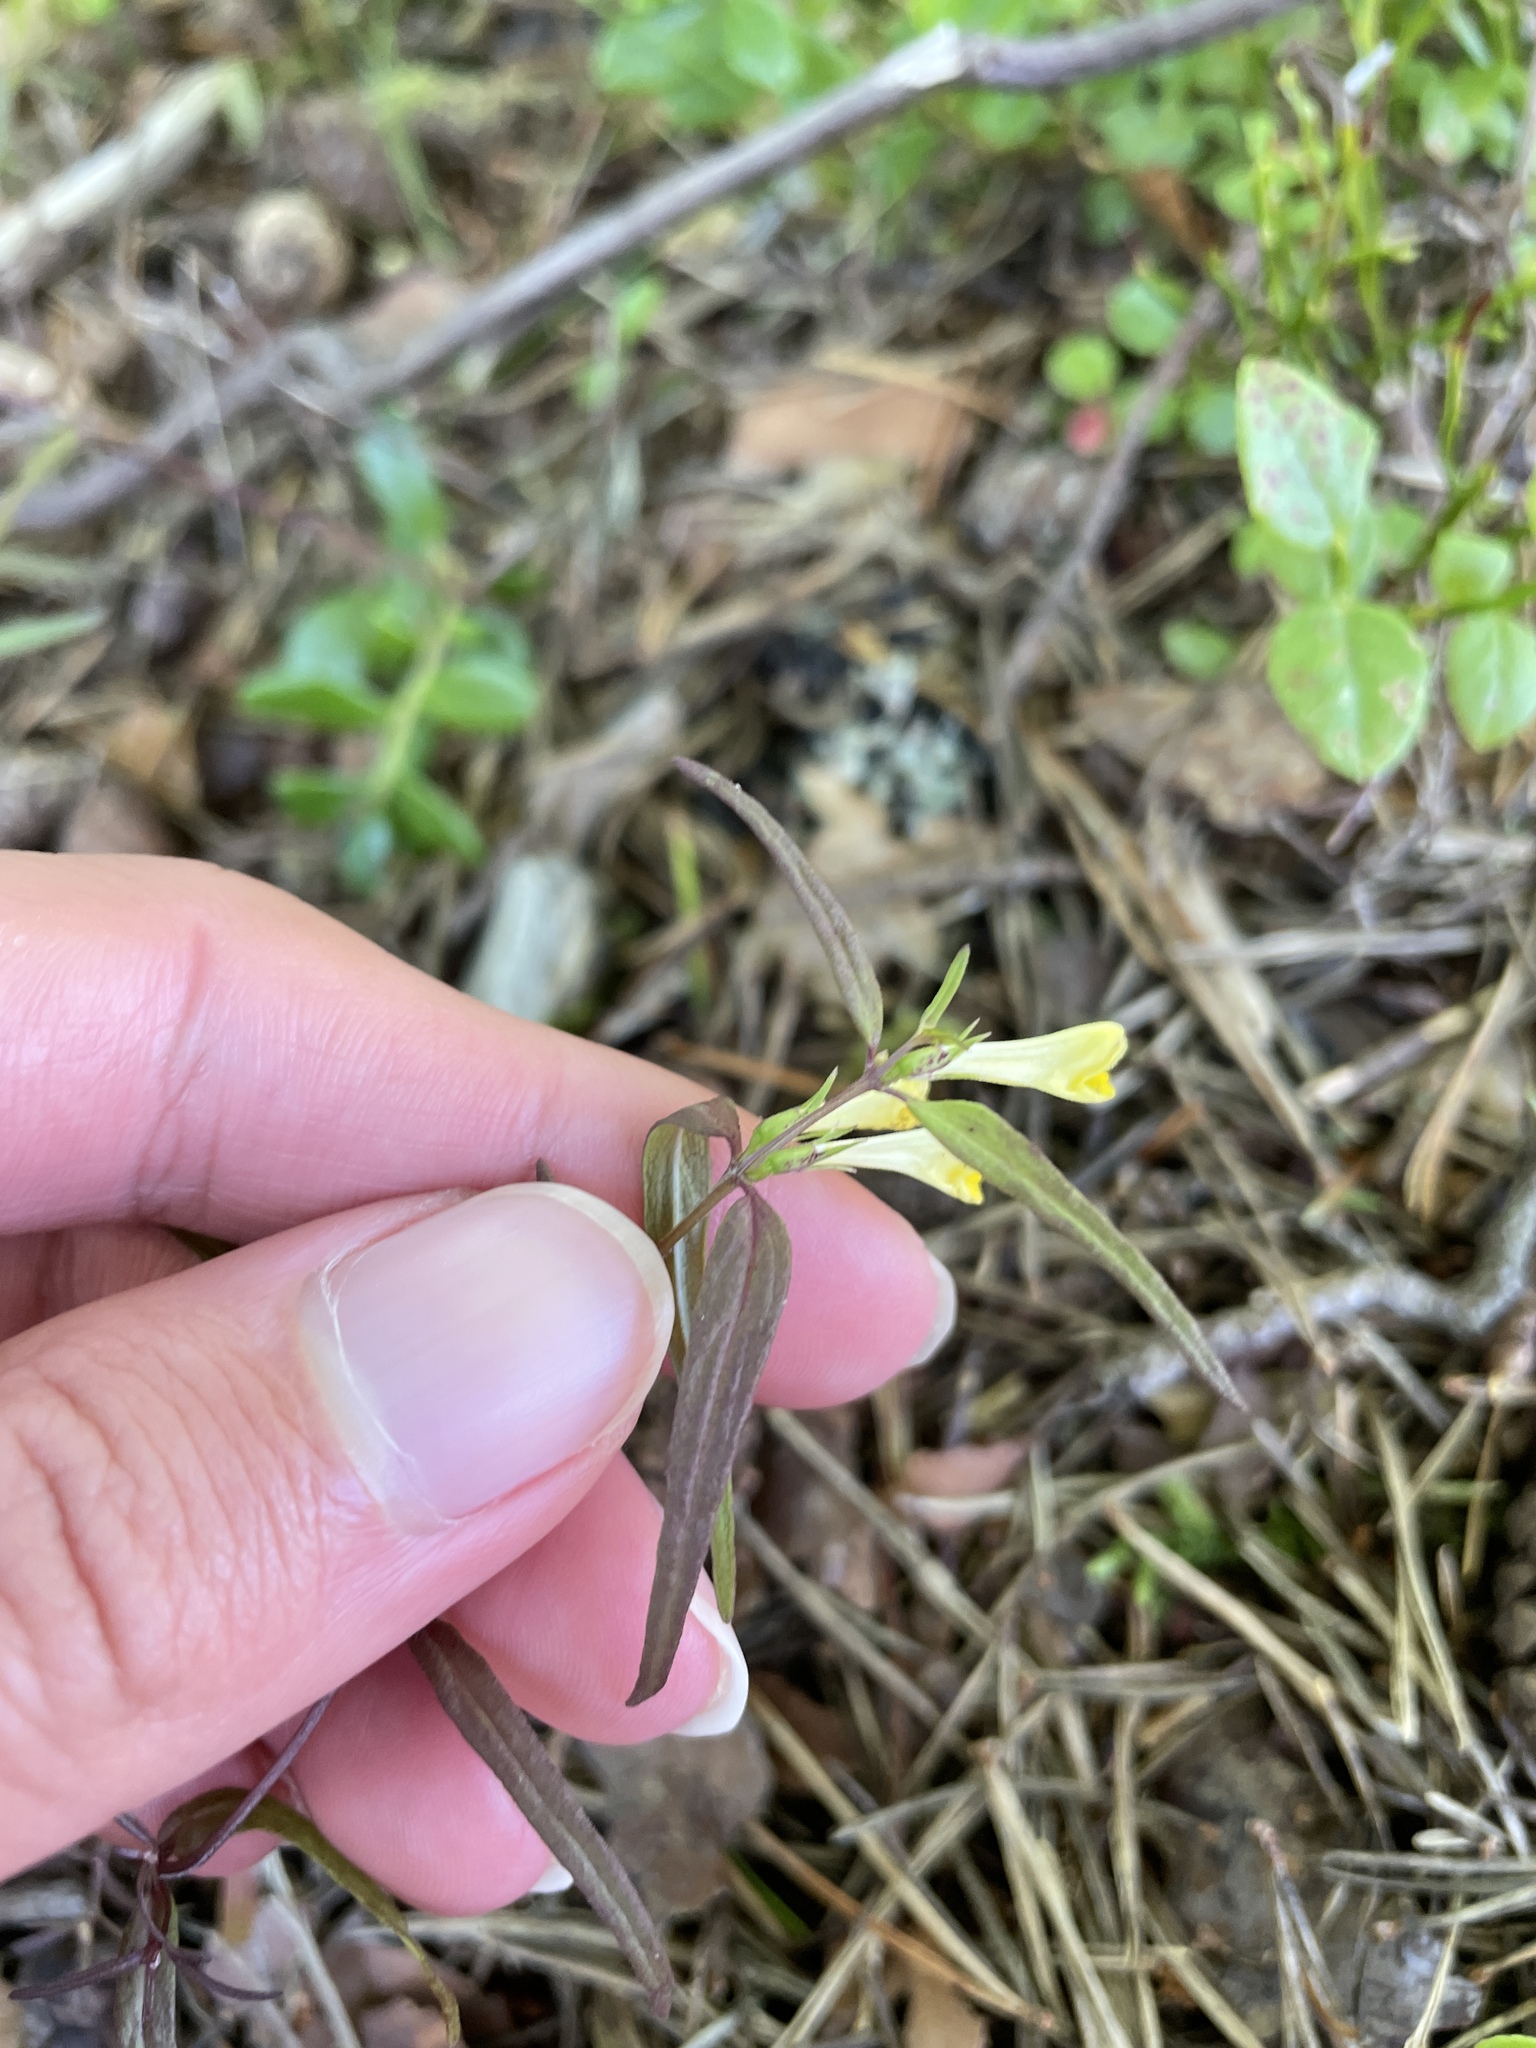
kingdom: Plantae
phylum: Tracheophyta
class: Magnoliopsida
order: Lamiales
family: Orobanchaceae
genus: Melampyrum
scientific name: Melampyrum pratense
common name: Common cow-wheat
